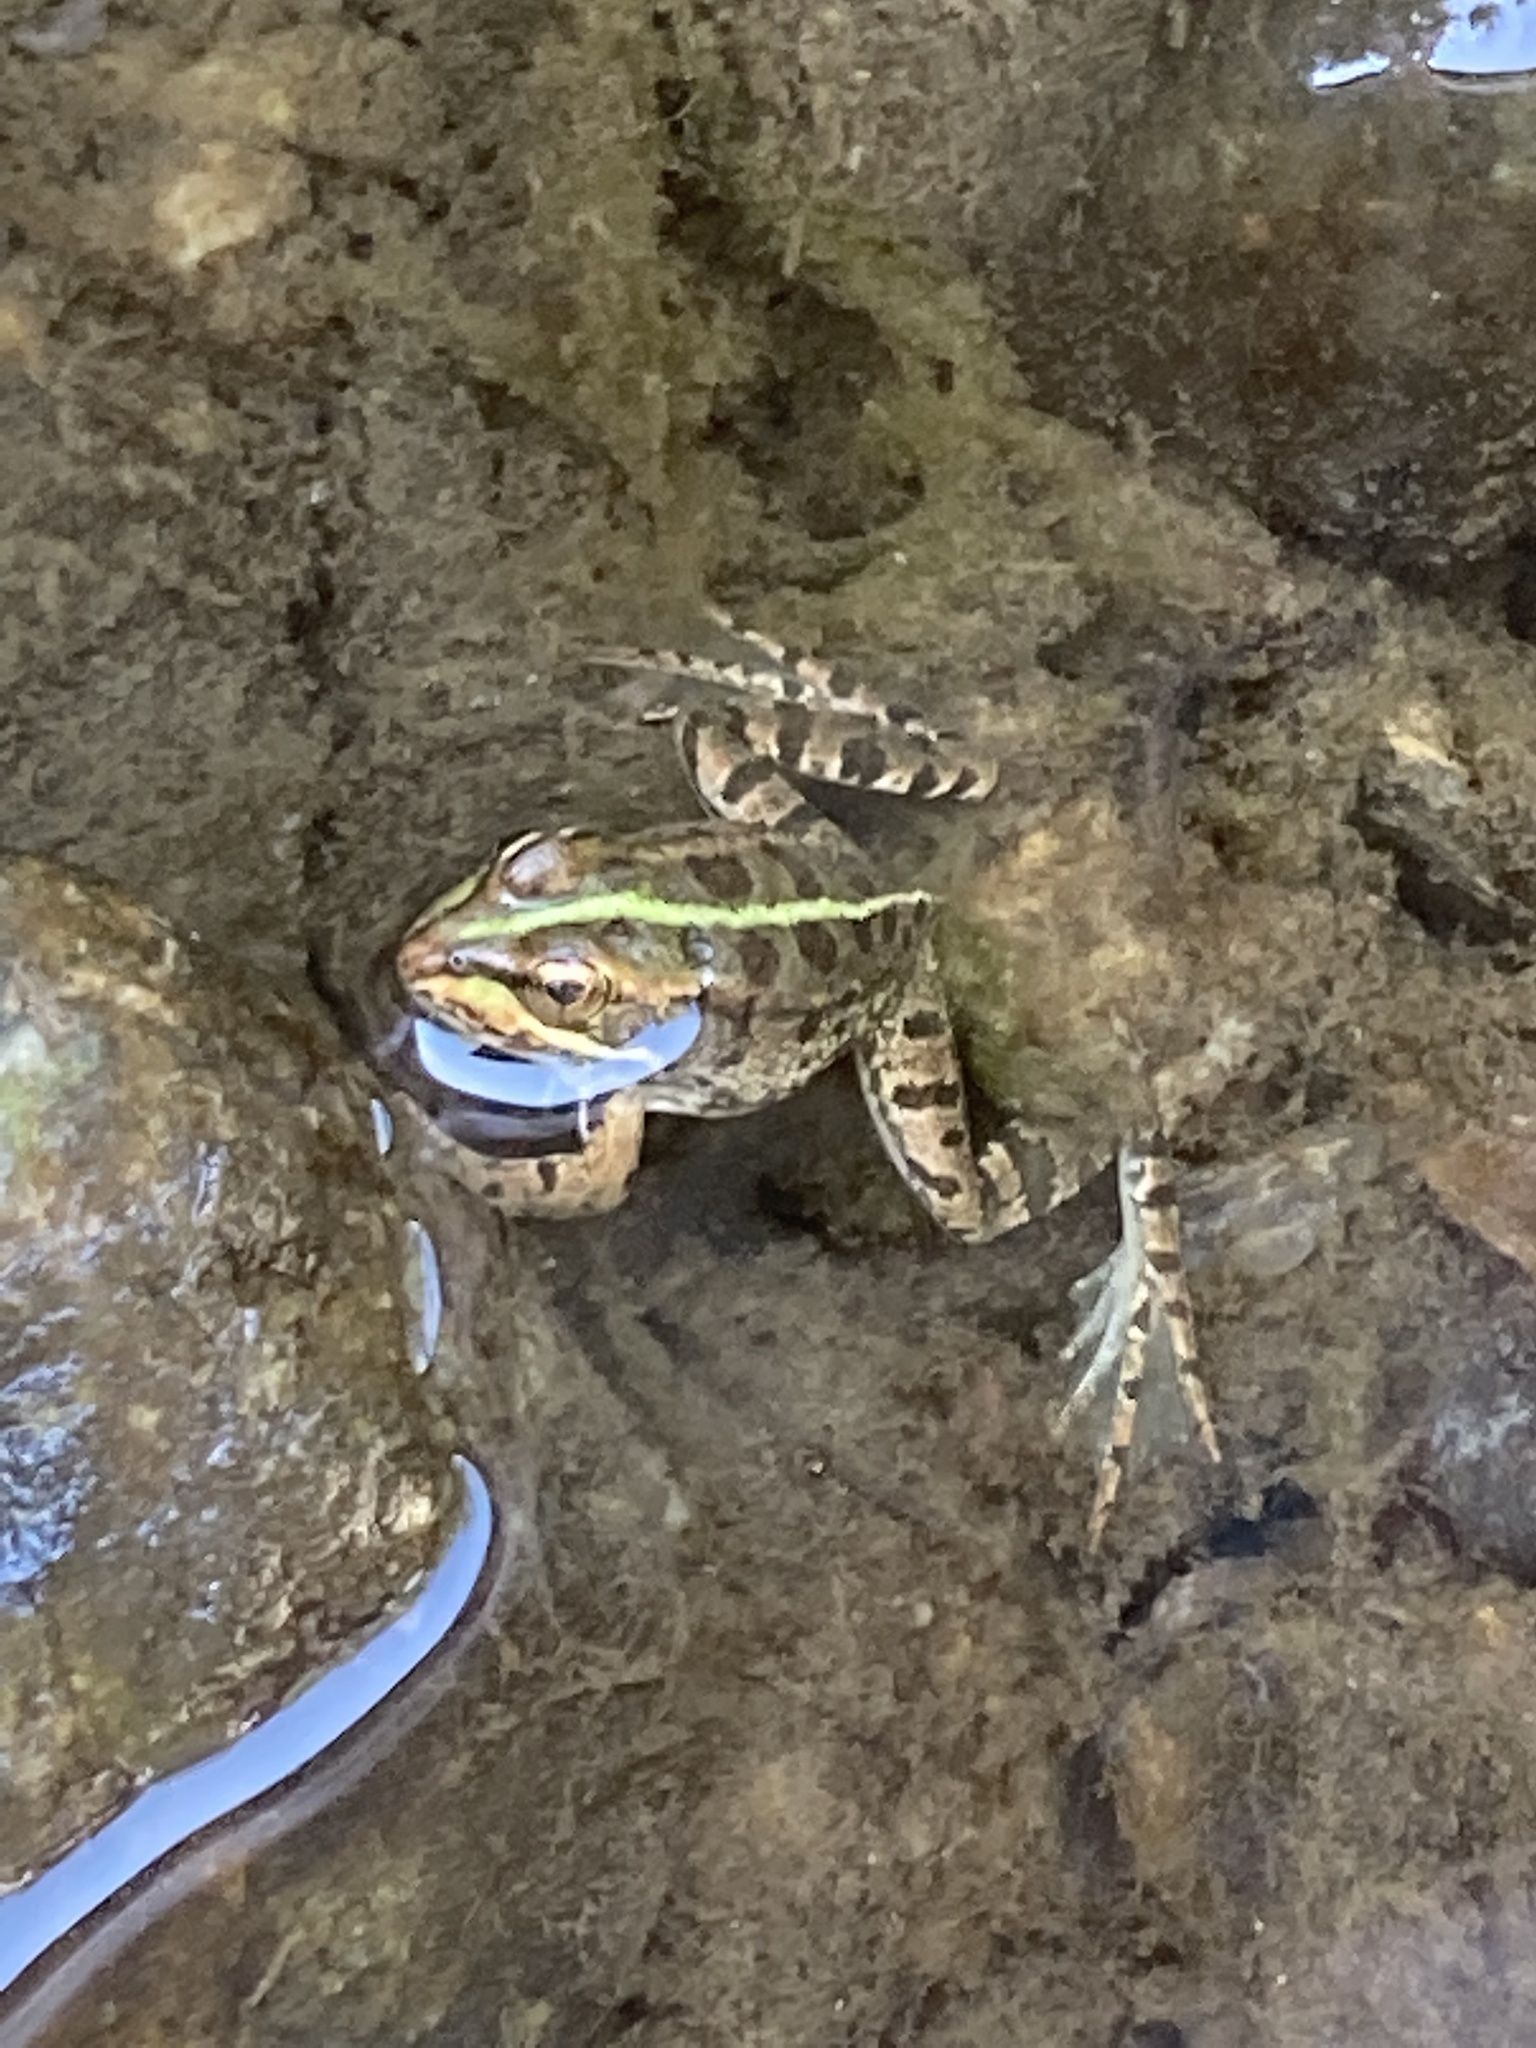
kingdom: Animalia
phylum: Chordata
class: Amphibia
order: Anura
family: Ranidae
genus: Pelophylax
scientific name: Pelophylax perezi
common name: Perez's frog
